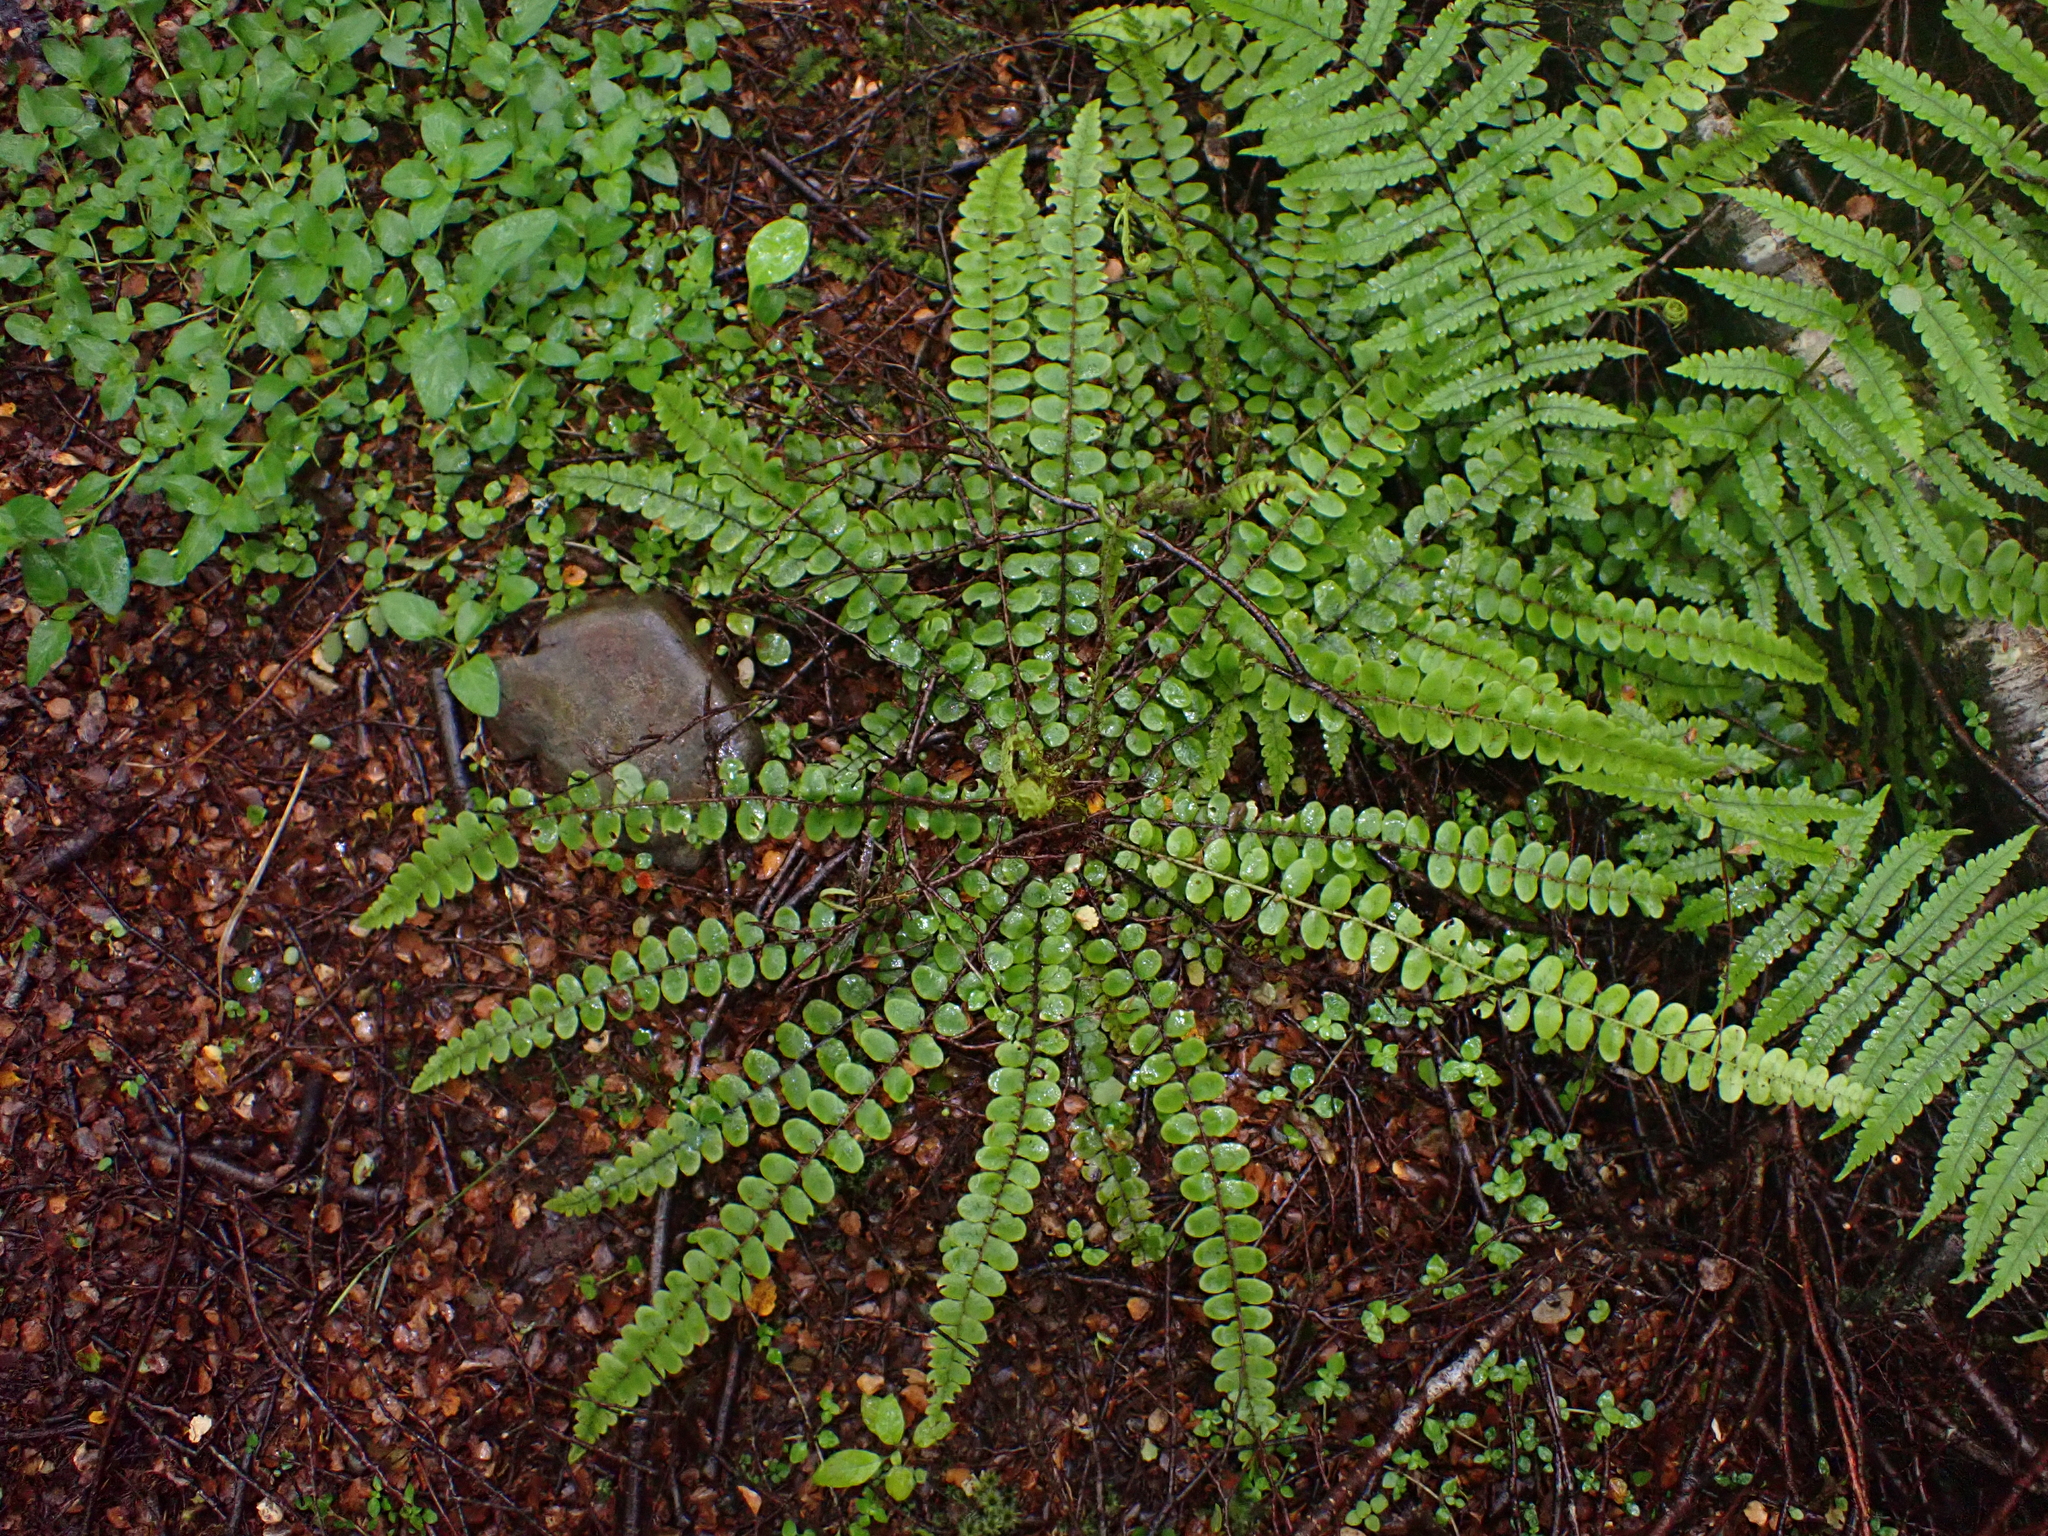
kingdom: Plantae
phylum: Tracheophyta
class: Polypodiopsida
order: Polypodiales
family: Blechnaceae
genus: Cranfillia
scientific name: Cranfillia fluviatilis
